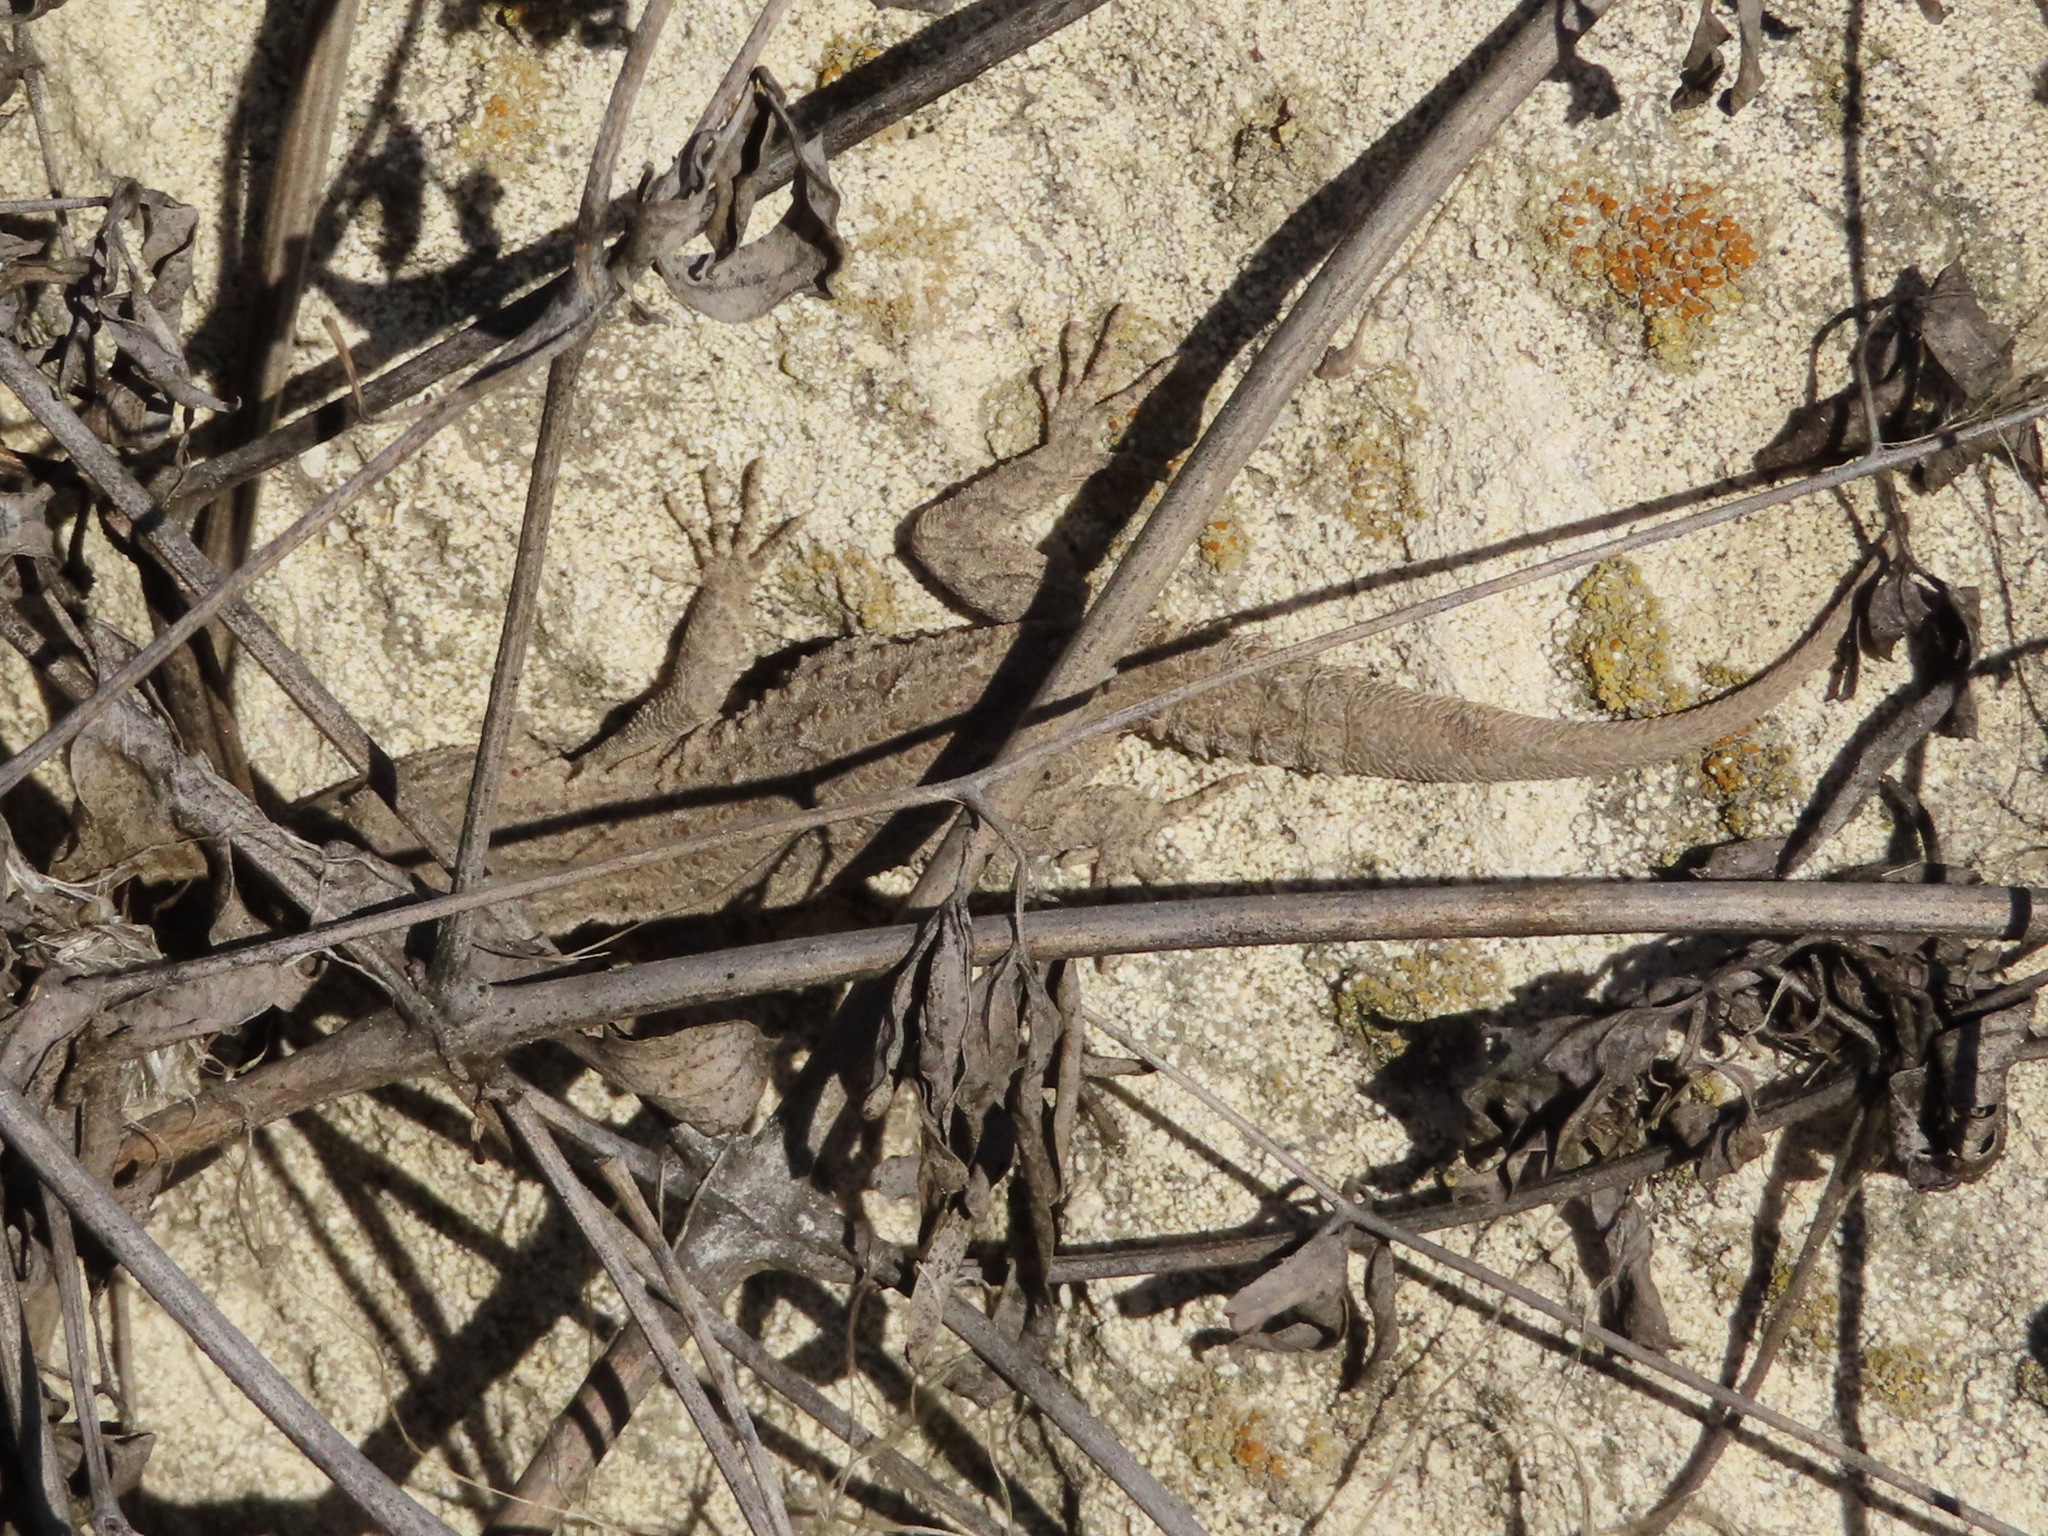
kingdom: Animalia
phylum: Chordata
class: Squamata
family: Gekkonidae
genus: Mediodactylus
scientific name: Mediodactylus russowii
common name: Grey thin-toed gecko
